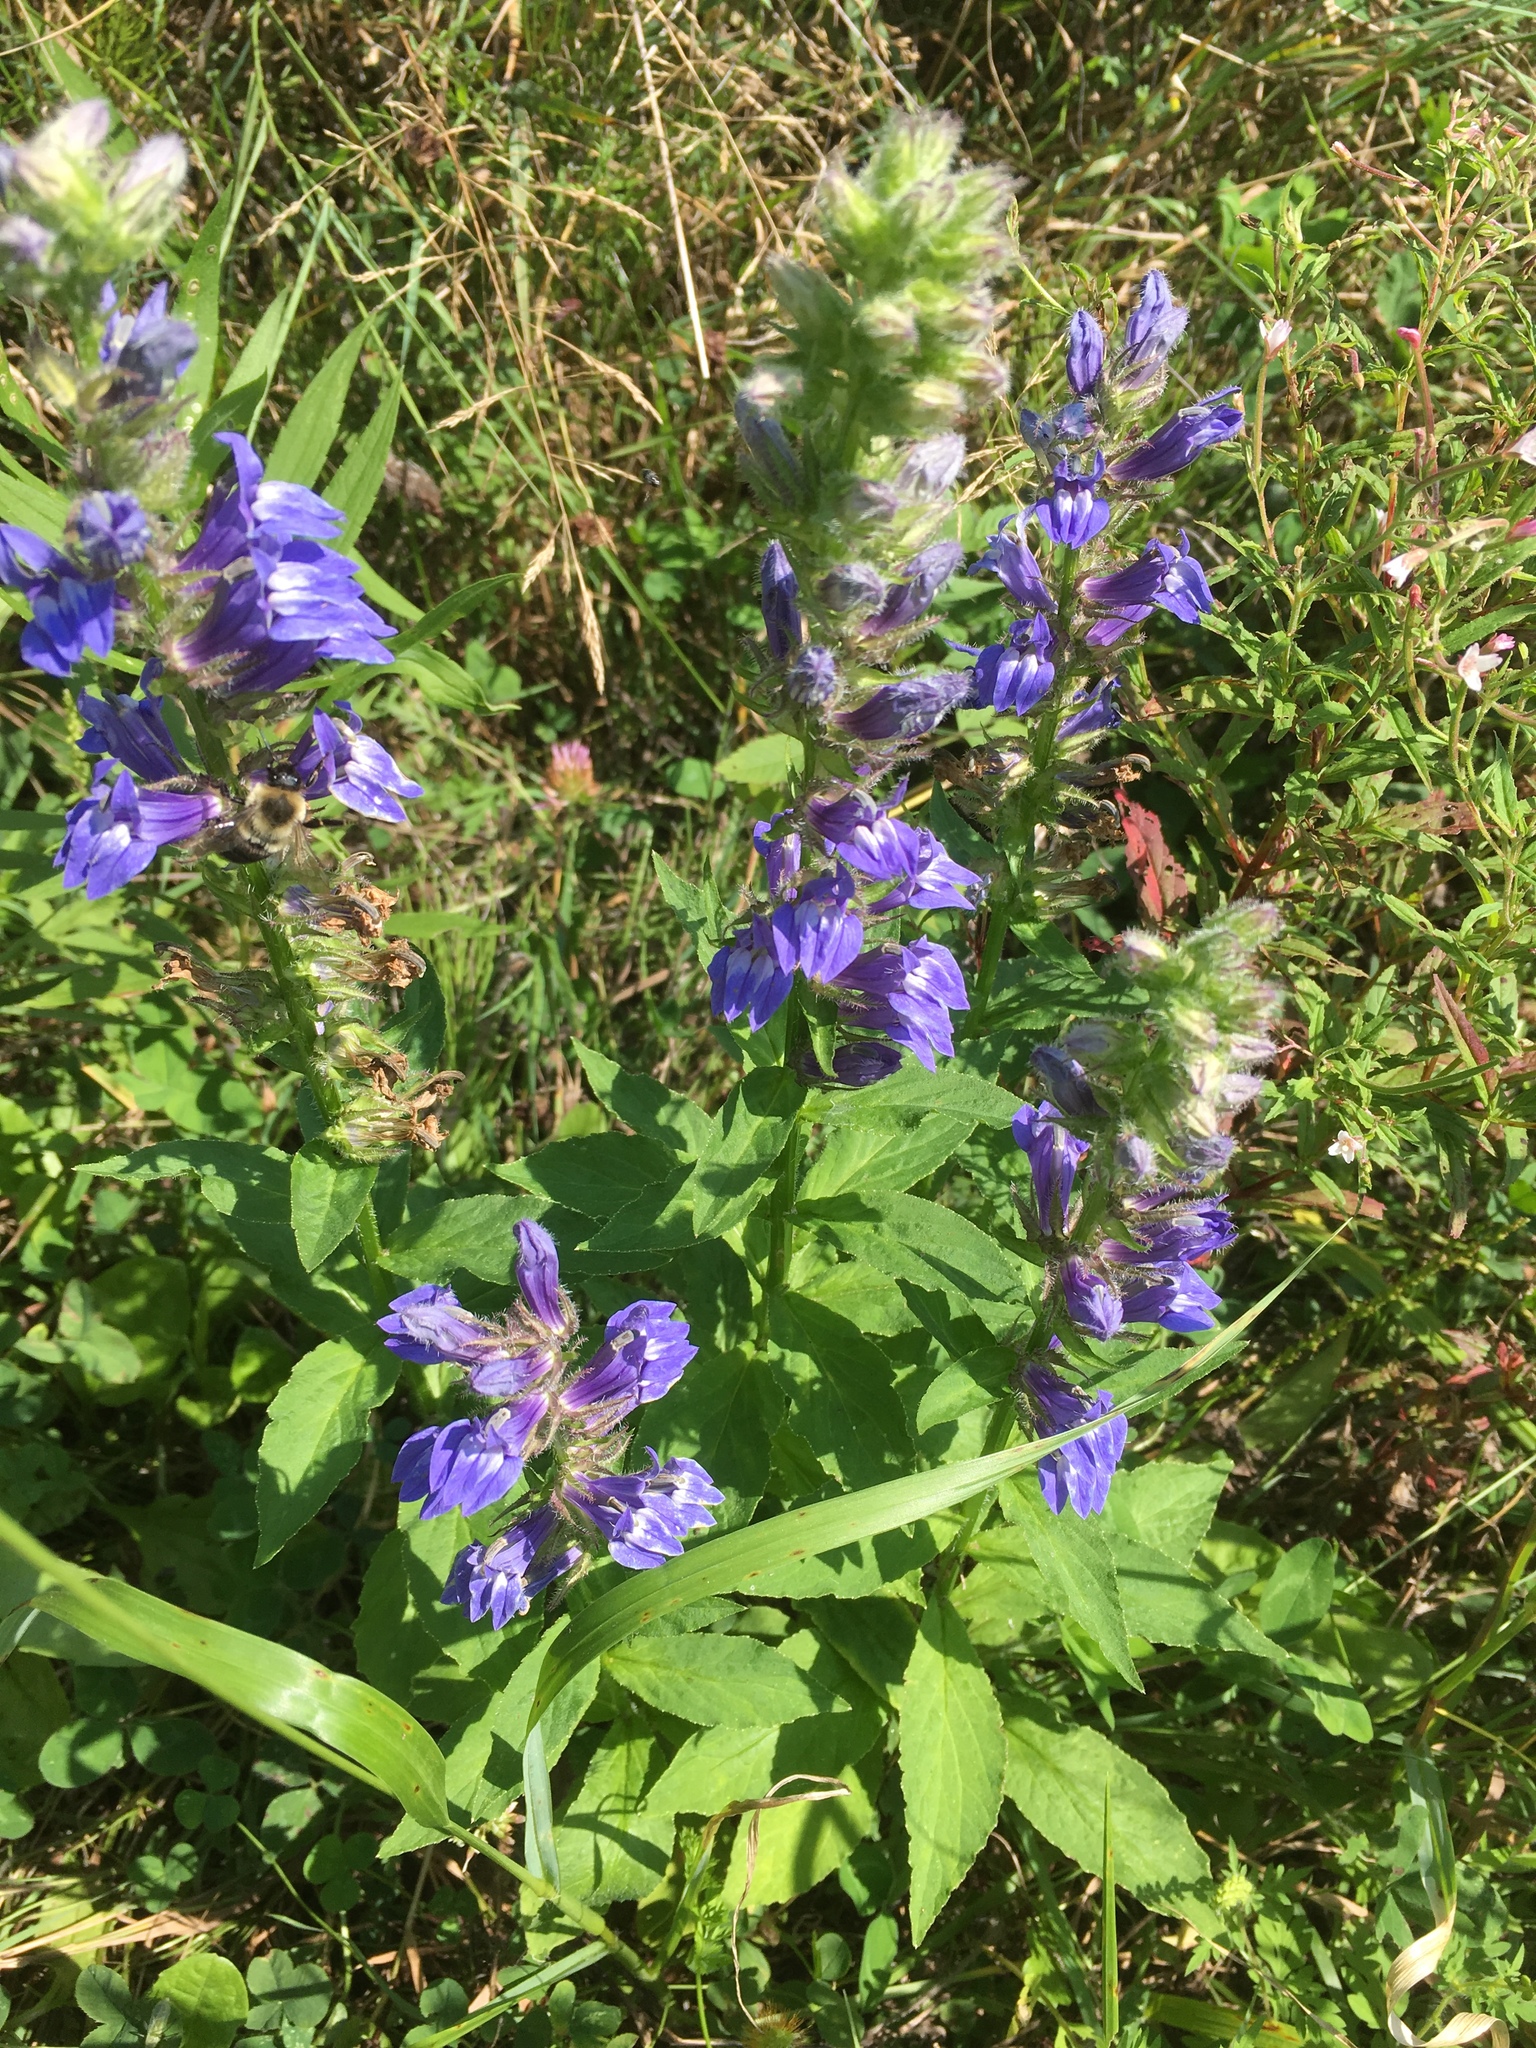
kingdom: Plantae
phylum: Tracheophyta
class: Magnoliopsida
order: Asterales
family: Campanulaceae
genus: Lobelia
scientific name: Lobelia siphilitica
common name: Great lobelia
